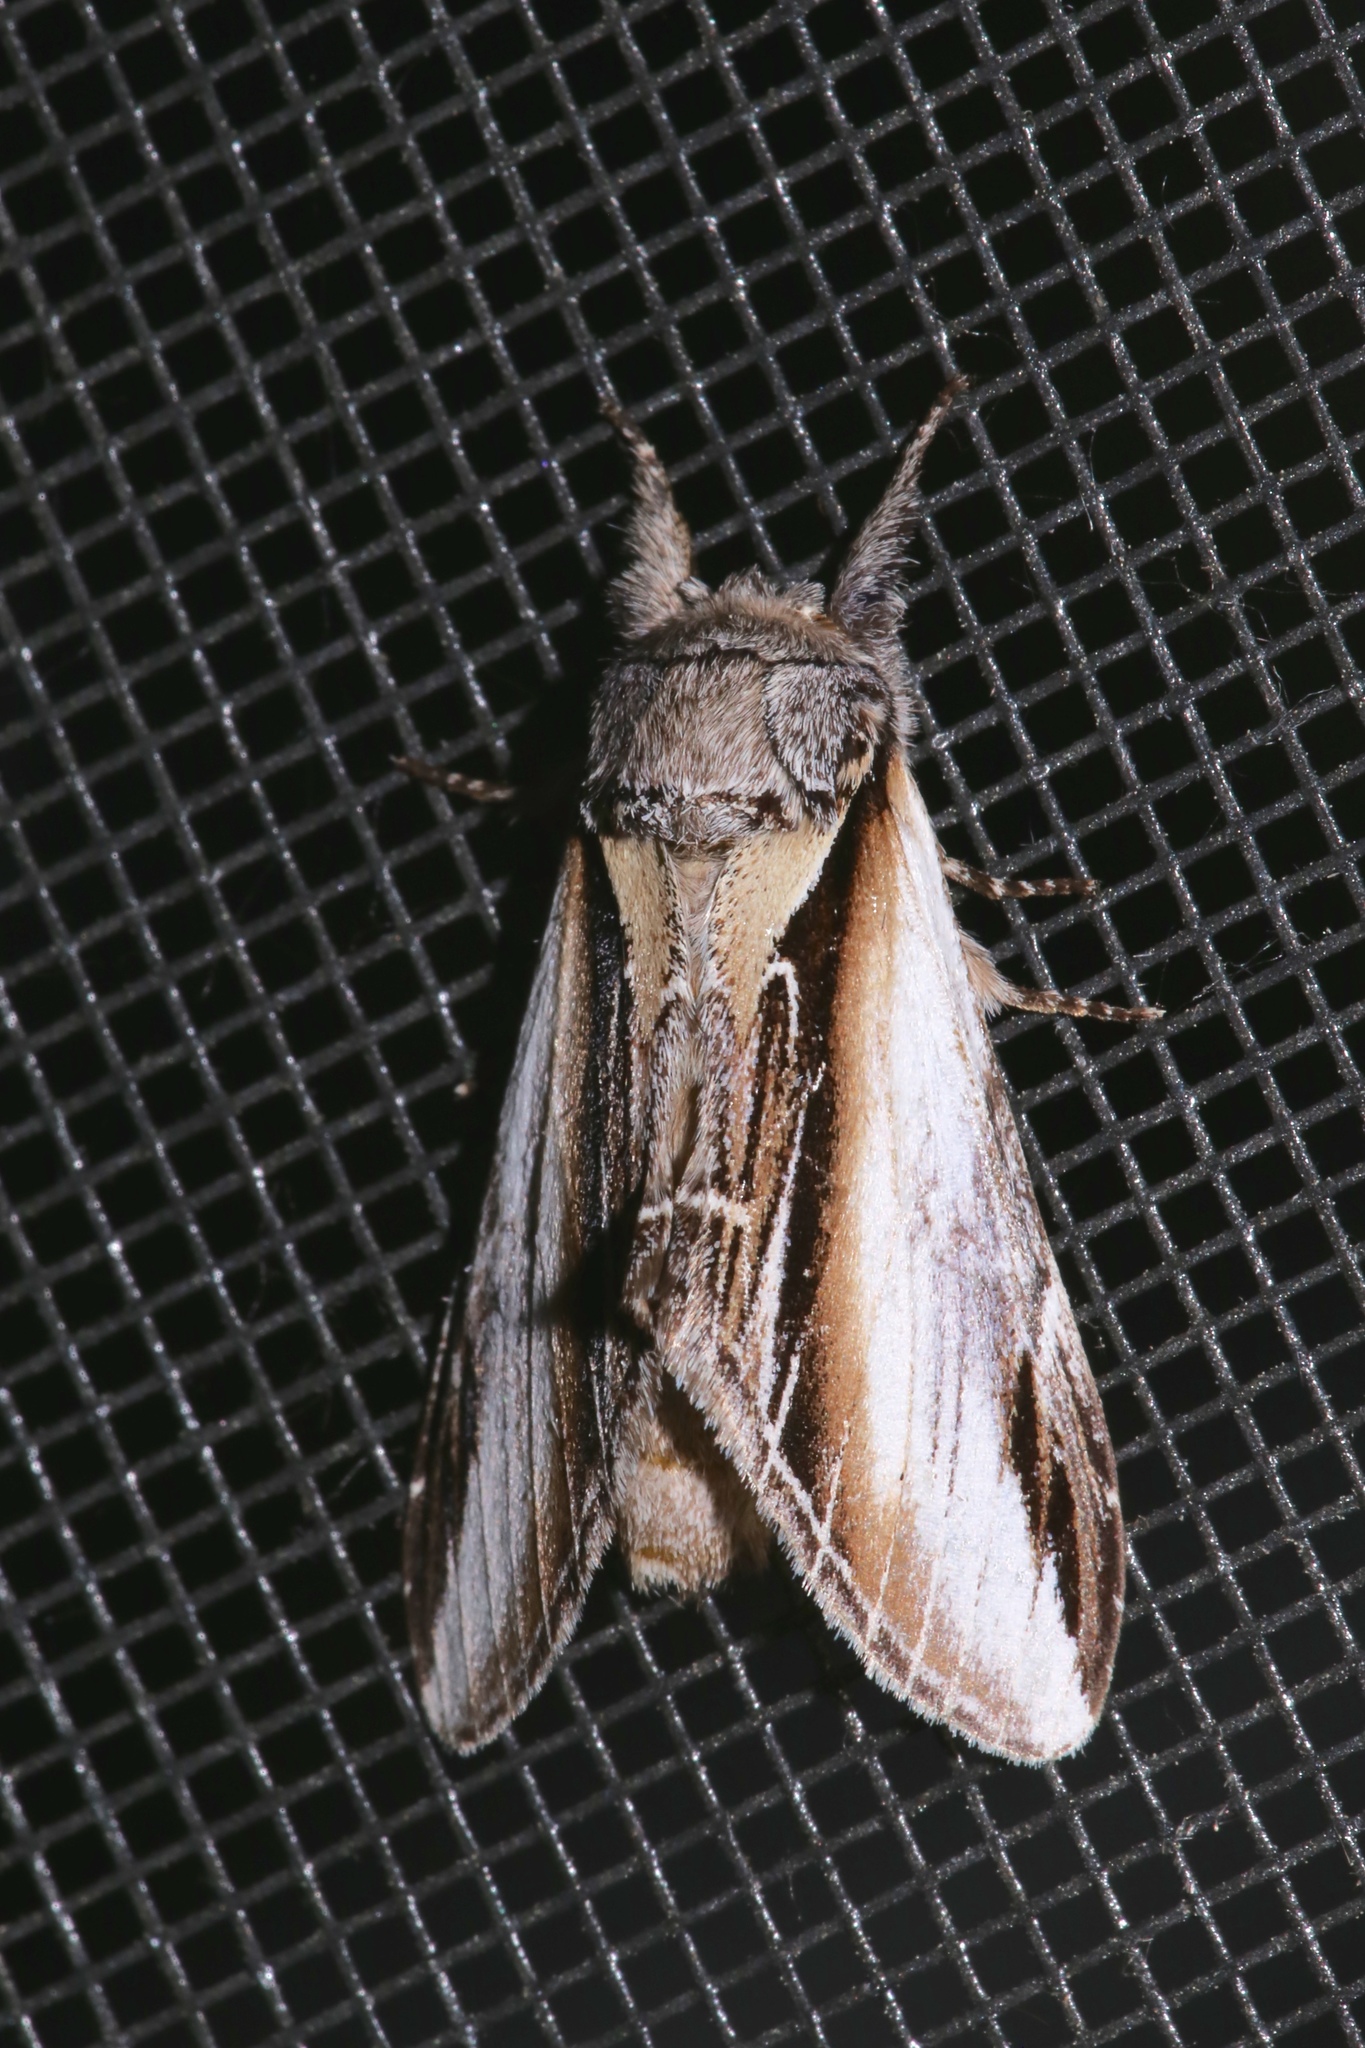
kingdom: Animalia
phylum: Arthropoda
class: Insecta
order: Lepidoptera
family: Notodontidae
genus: Pheosia
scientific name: Pheosia rimosa
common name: Black-rimmed prominent
